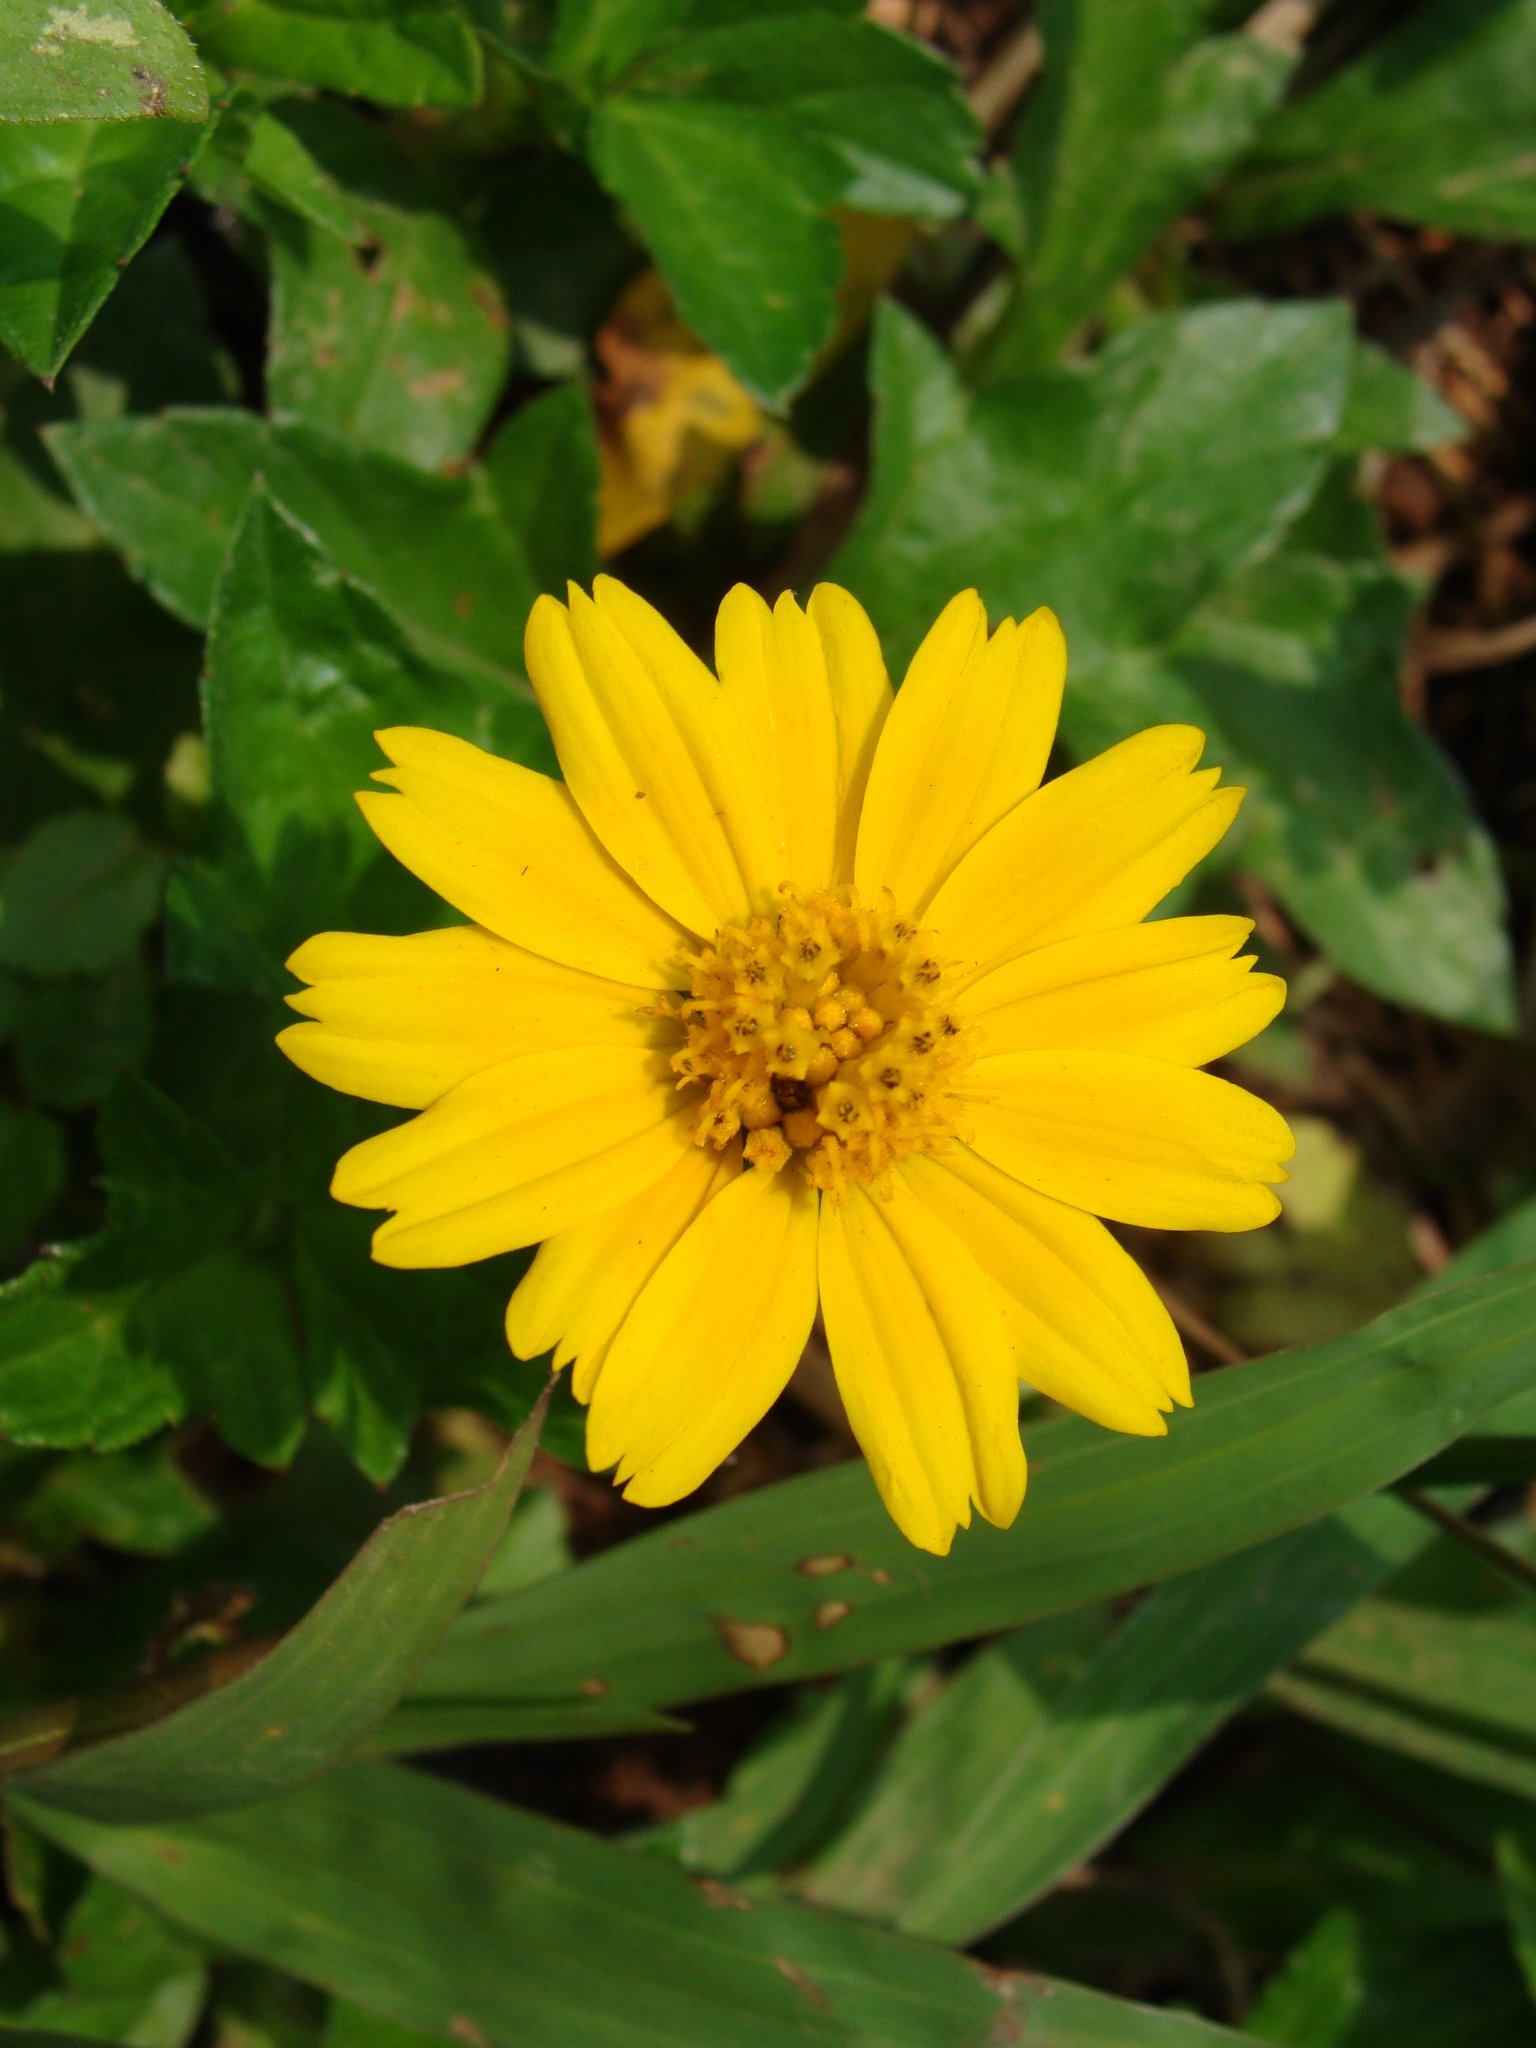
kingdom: Plantae
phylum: Tracheophyta
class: Magnoliopsida
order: Asterales
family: Asteraceae
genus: Sphagneticola
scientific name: Sphagneticola trilobata
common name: Bay biscayne creeping-oxeye
